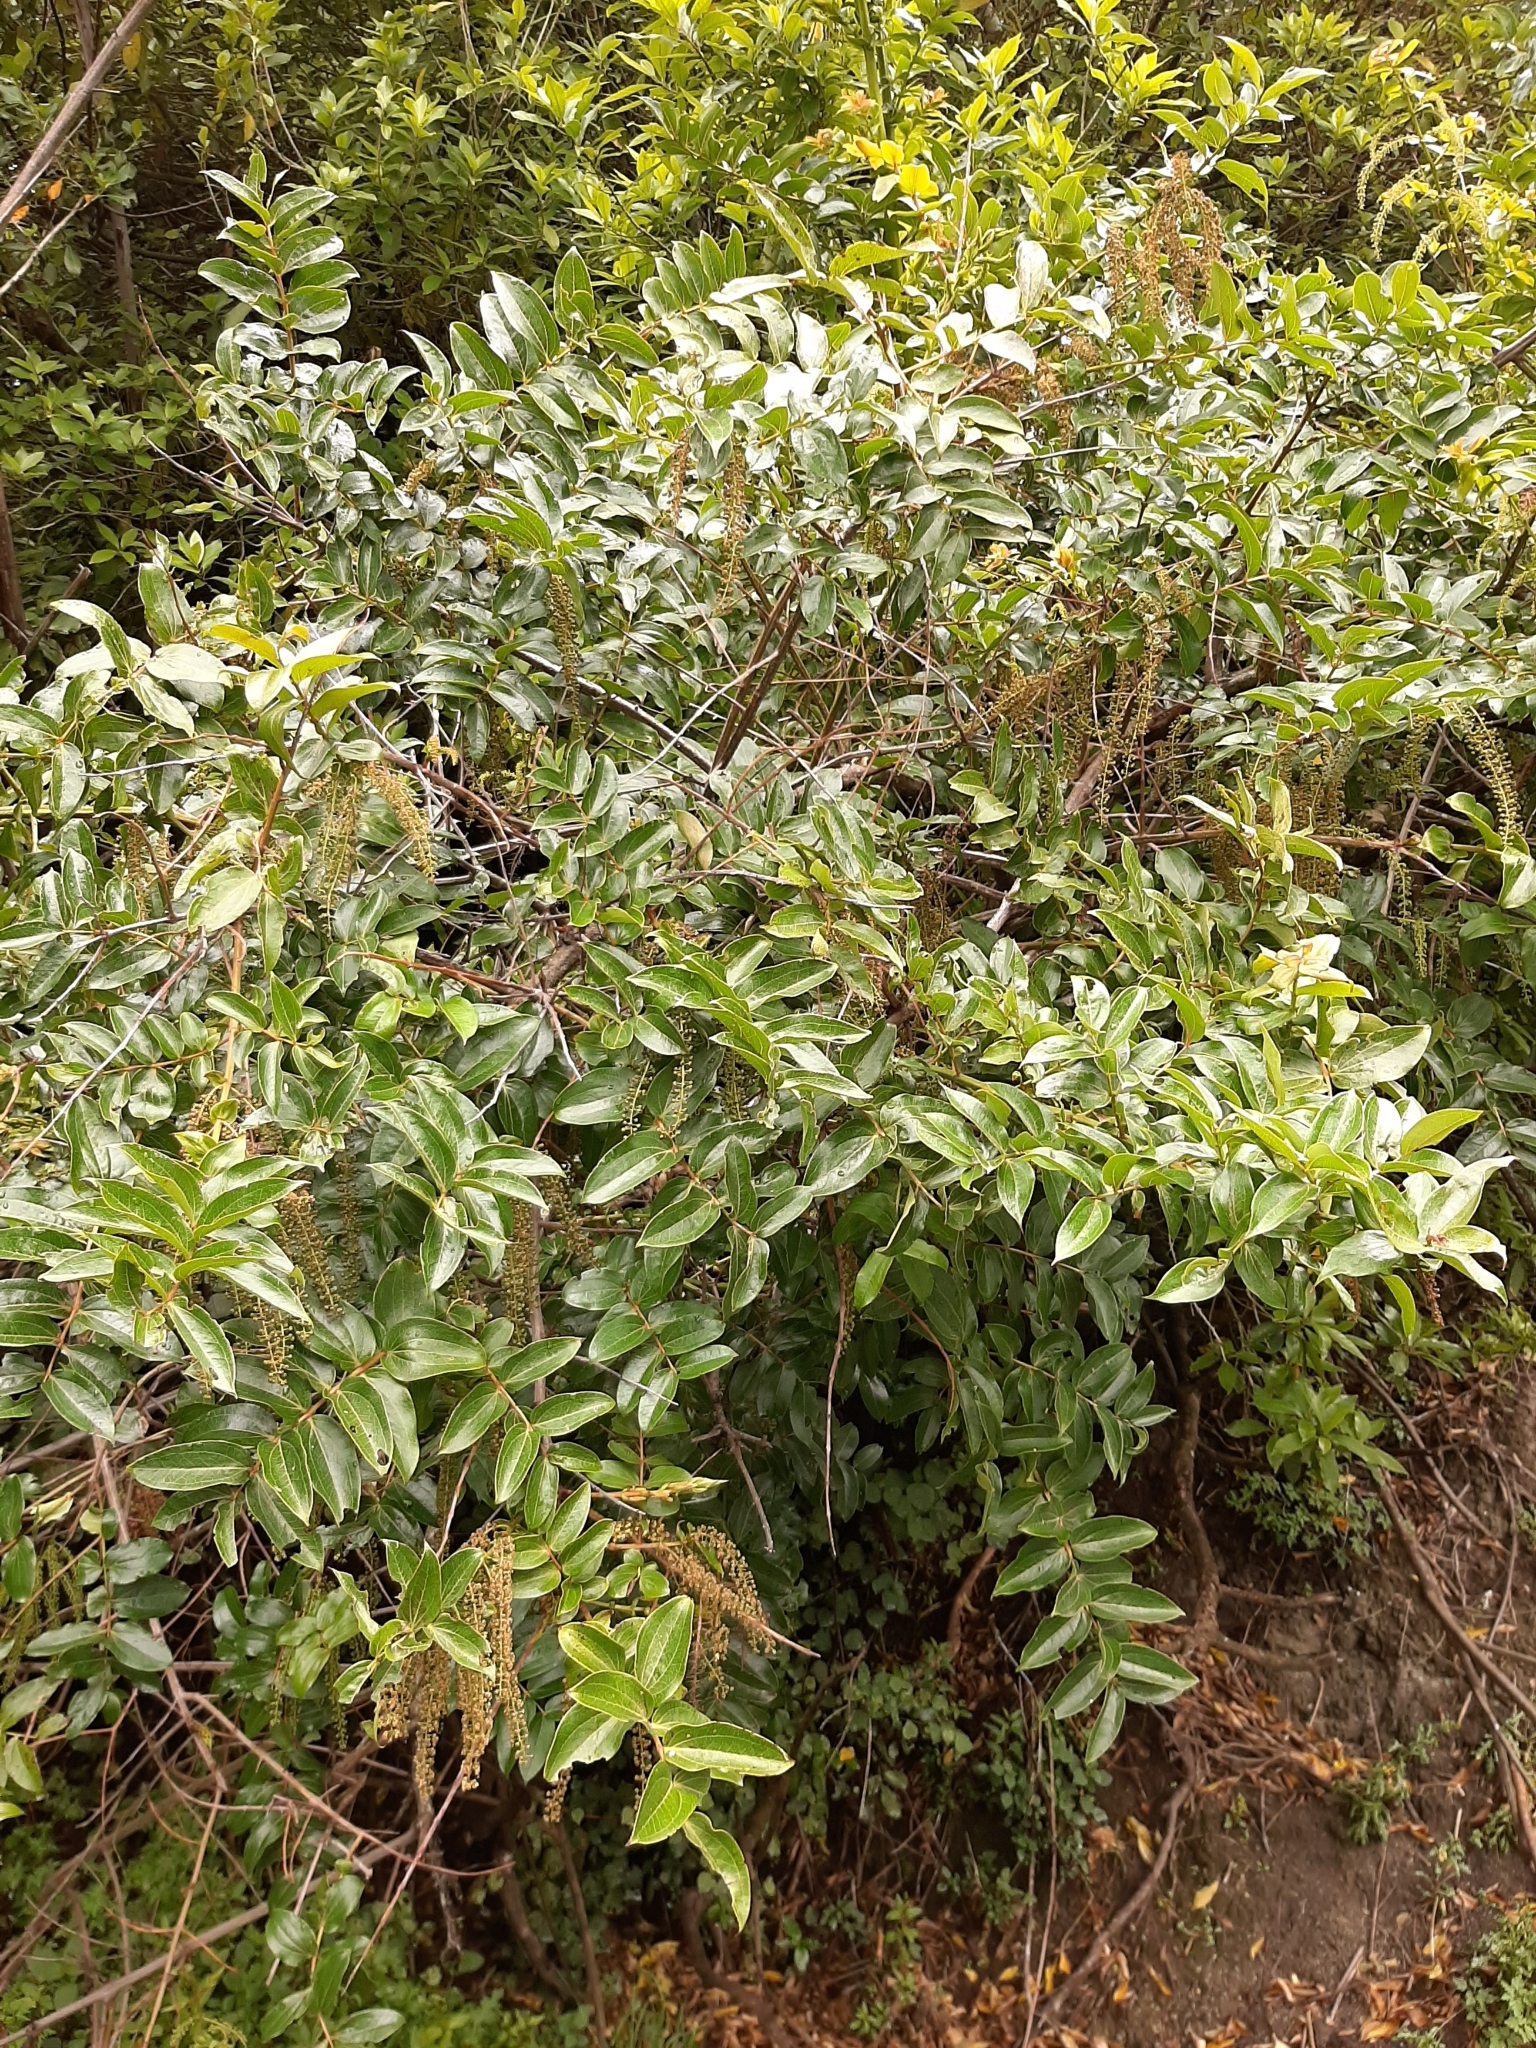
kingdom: Plantae
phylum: Tracheophyta
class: Magnoliopsida
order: Cucurbitales
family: Coriariaceae
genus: Coriaria
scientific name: Coriaria arborea
